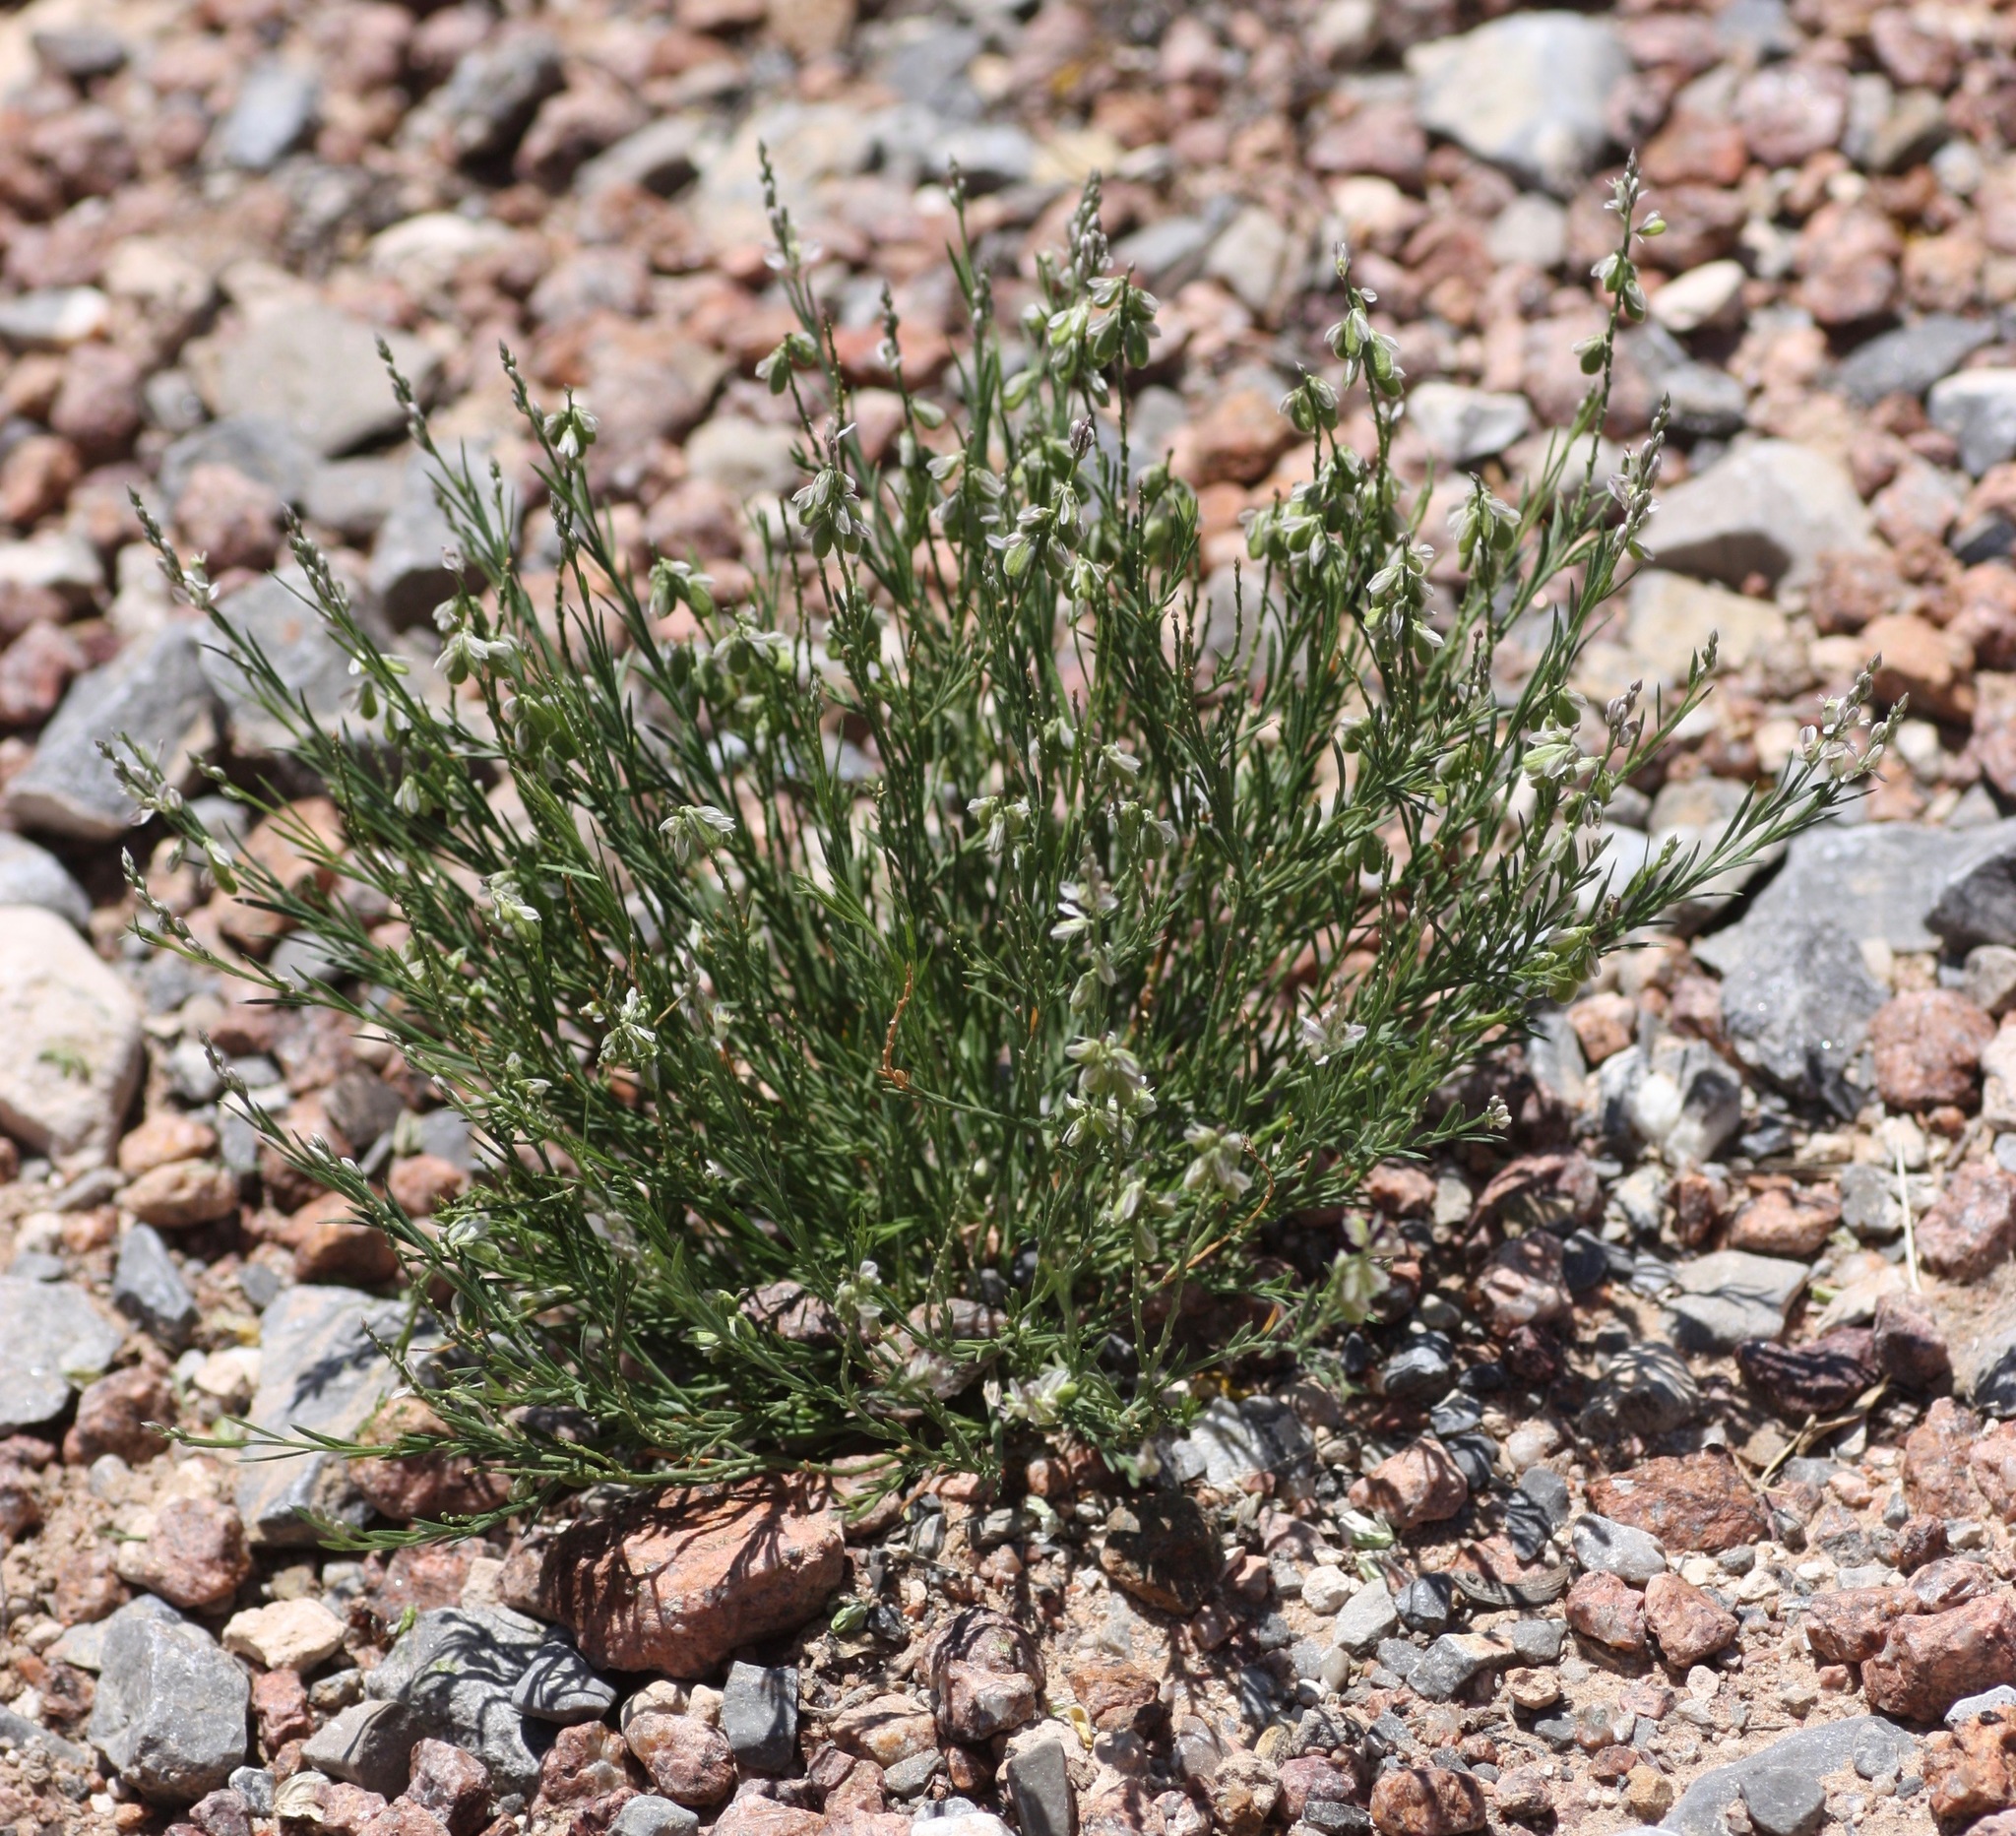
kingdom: Plantae
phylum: Tracheophyta
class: Magnoliopsida
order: Fabales
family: Polygalaceae
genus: Polygala
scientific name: Polygala scoparioides
